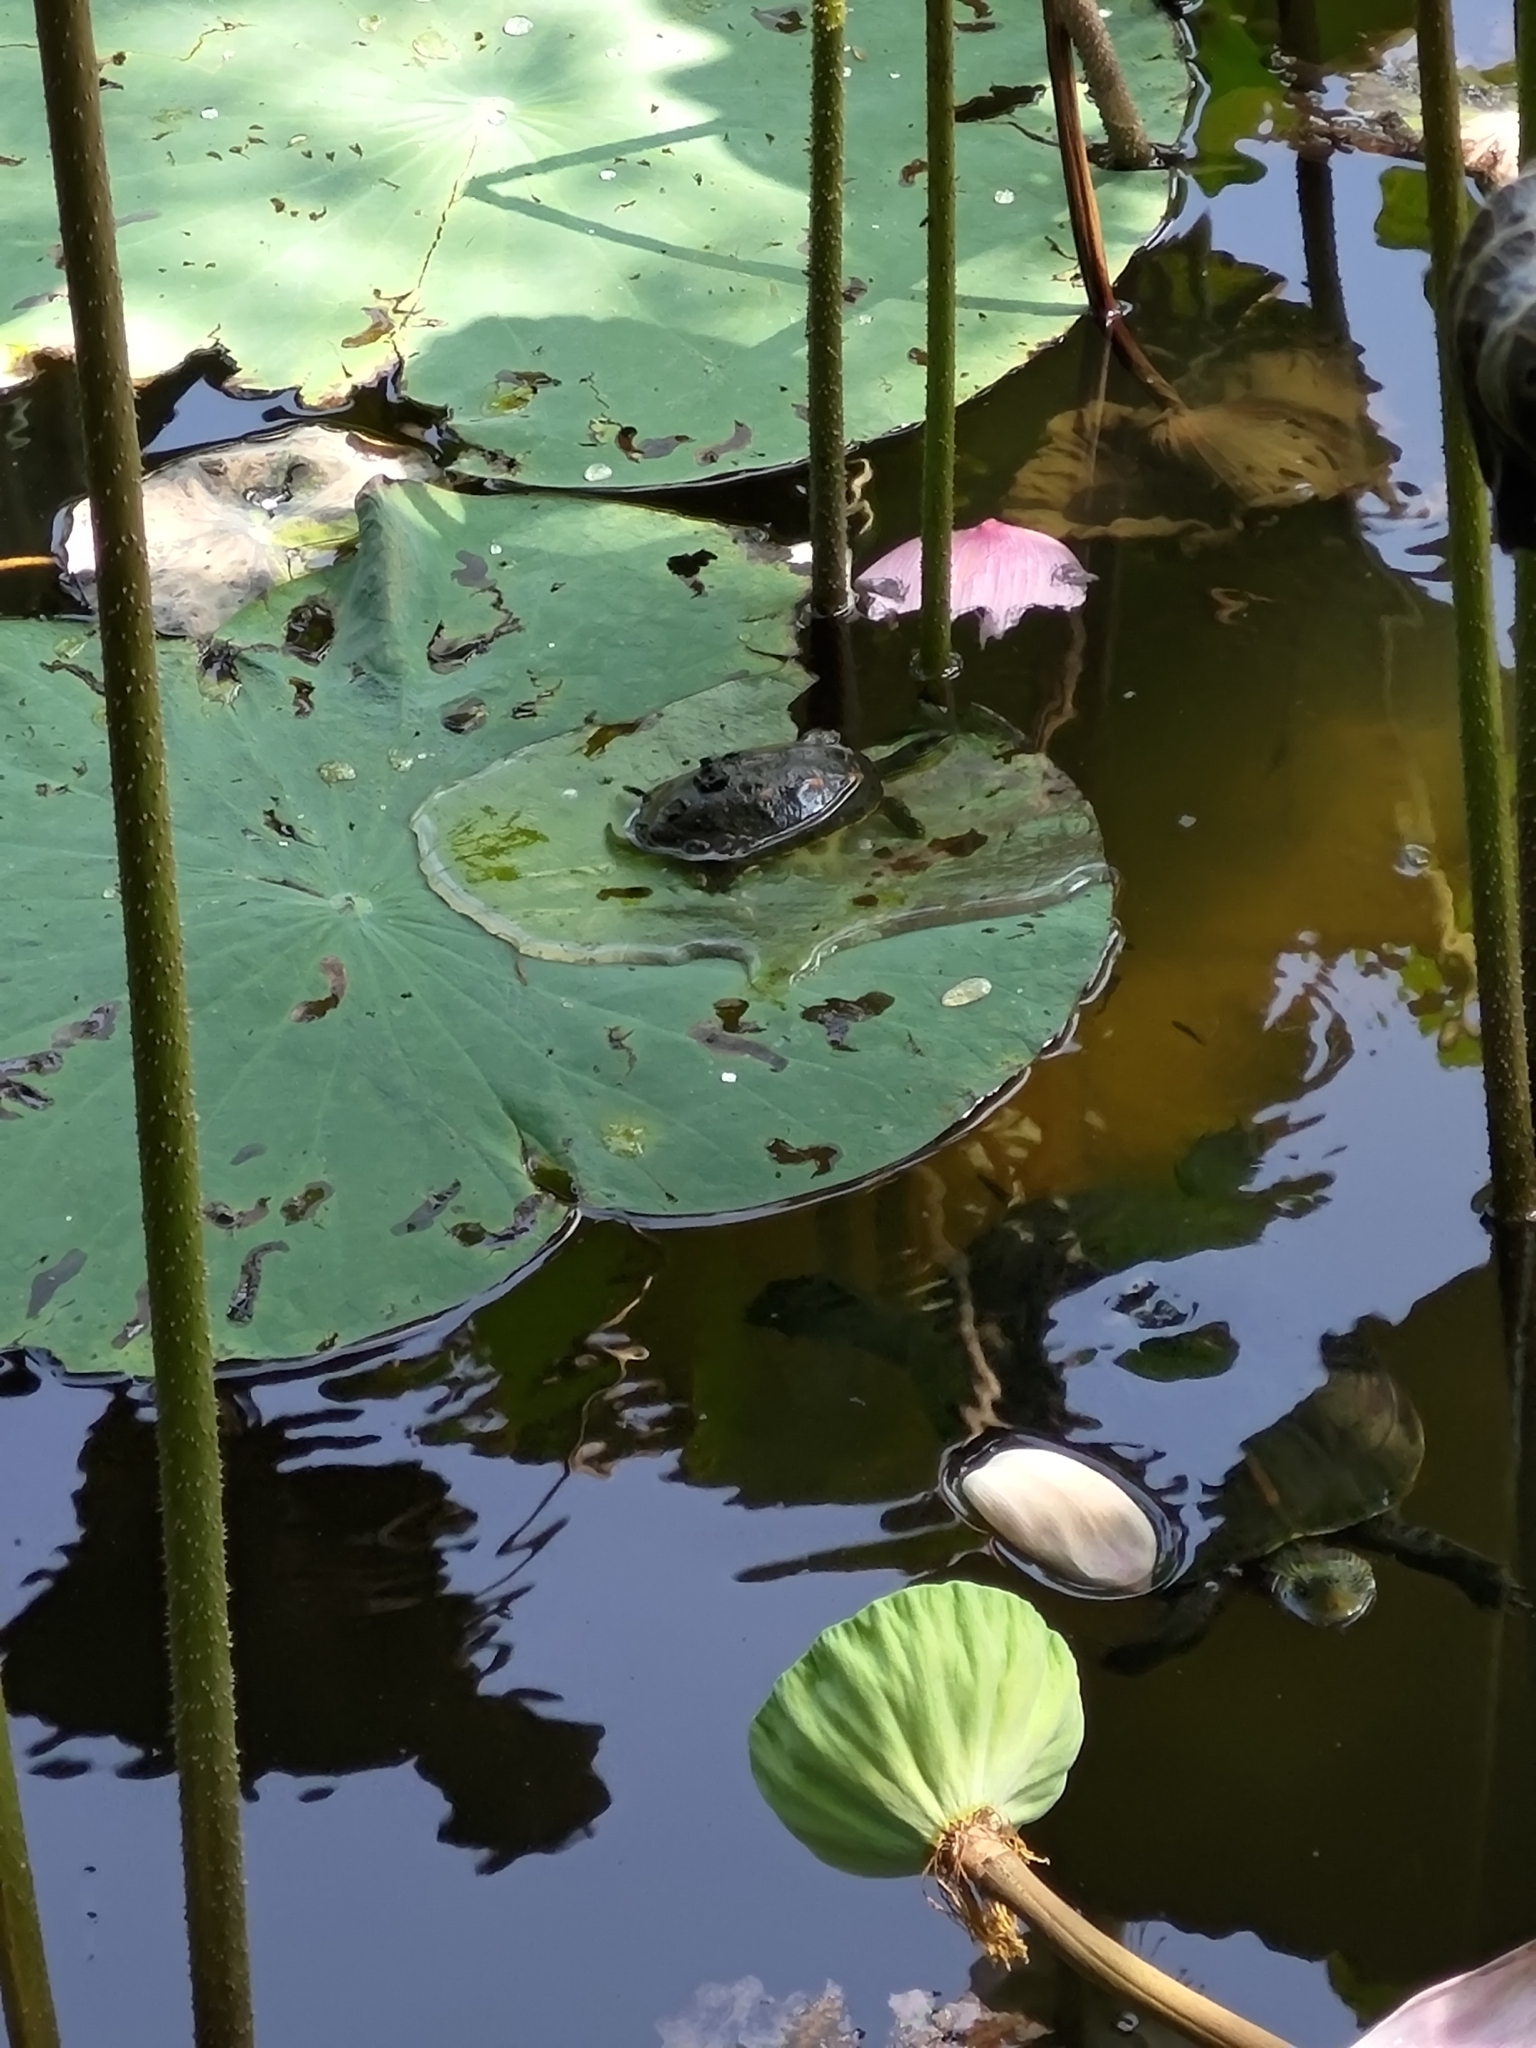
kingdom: Animalia
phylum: Chordata
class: Testudines
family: Geoemydidae
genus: Mauremys
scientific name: Mauremys sinensis
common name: Chinese stripe-necked turtle
